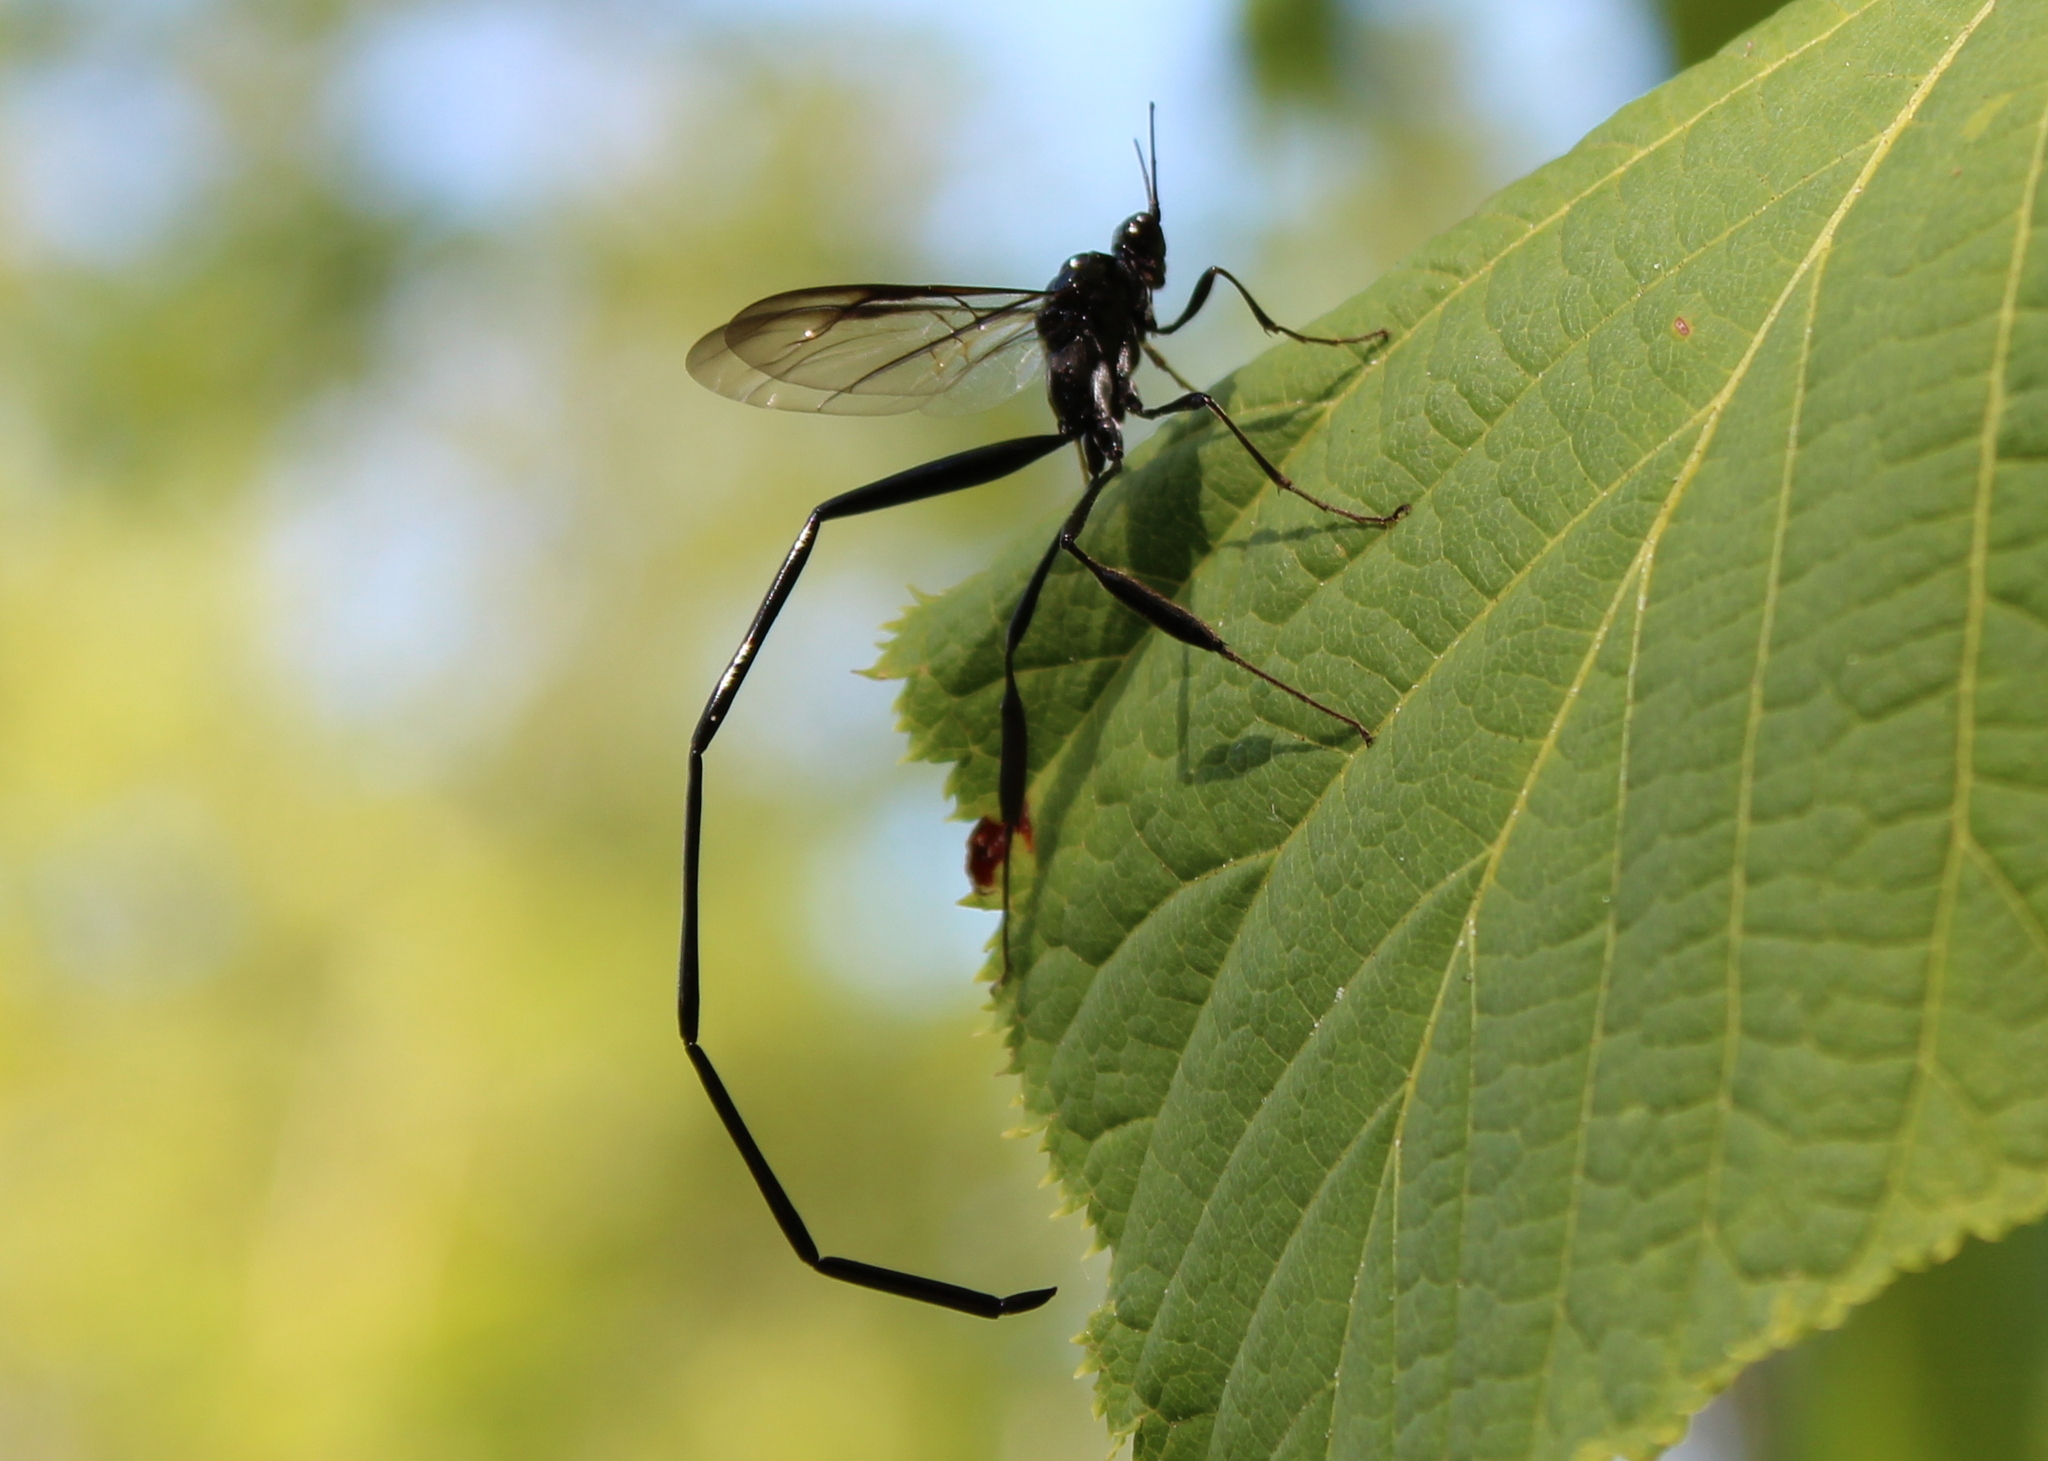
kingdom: Animalia
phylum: Arthropoda
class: Insecta
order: Hymenoptera
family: Pelecinidae
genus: Pelecinus
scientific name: Pelecinus polyturator
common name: American pelecinid wasp
